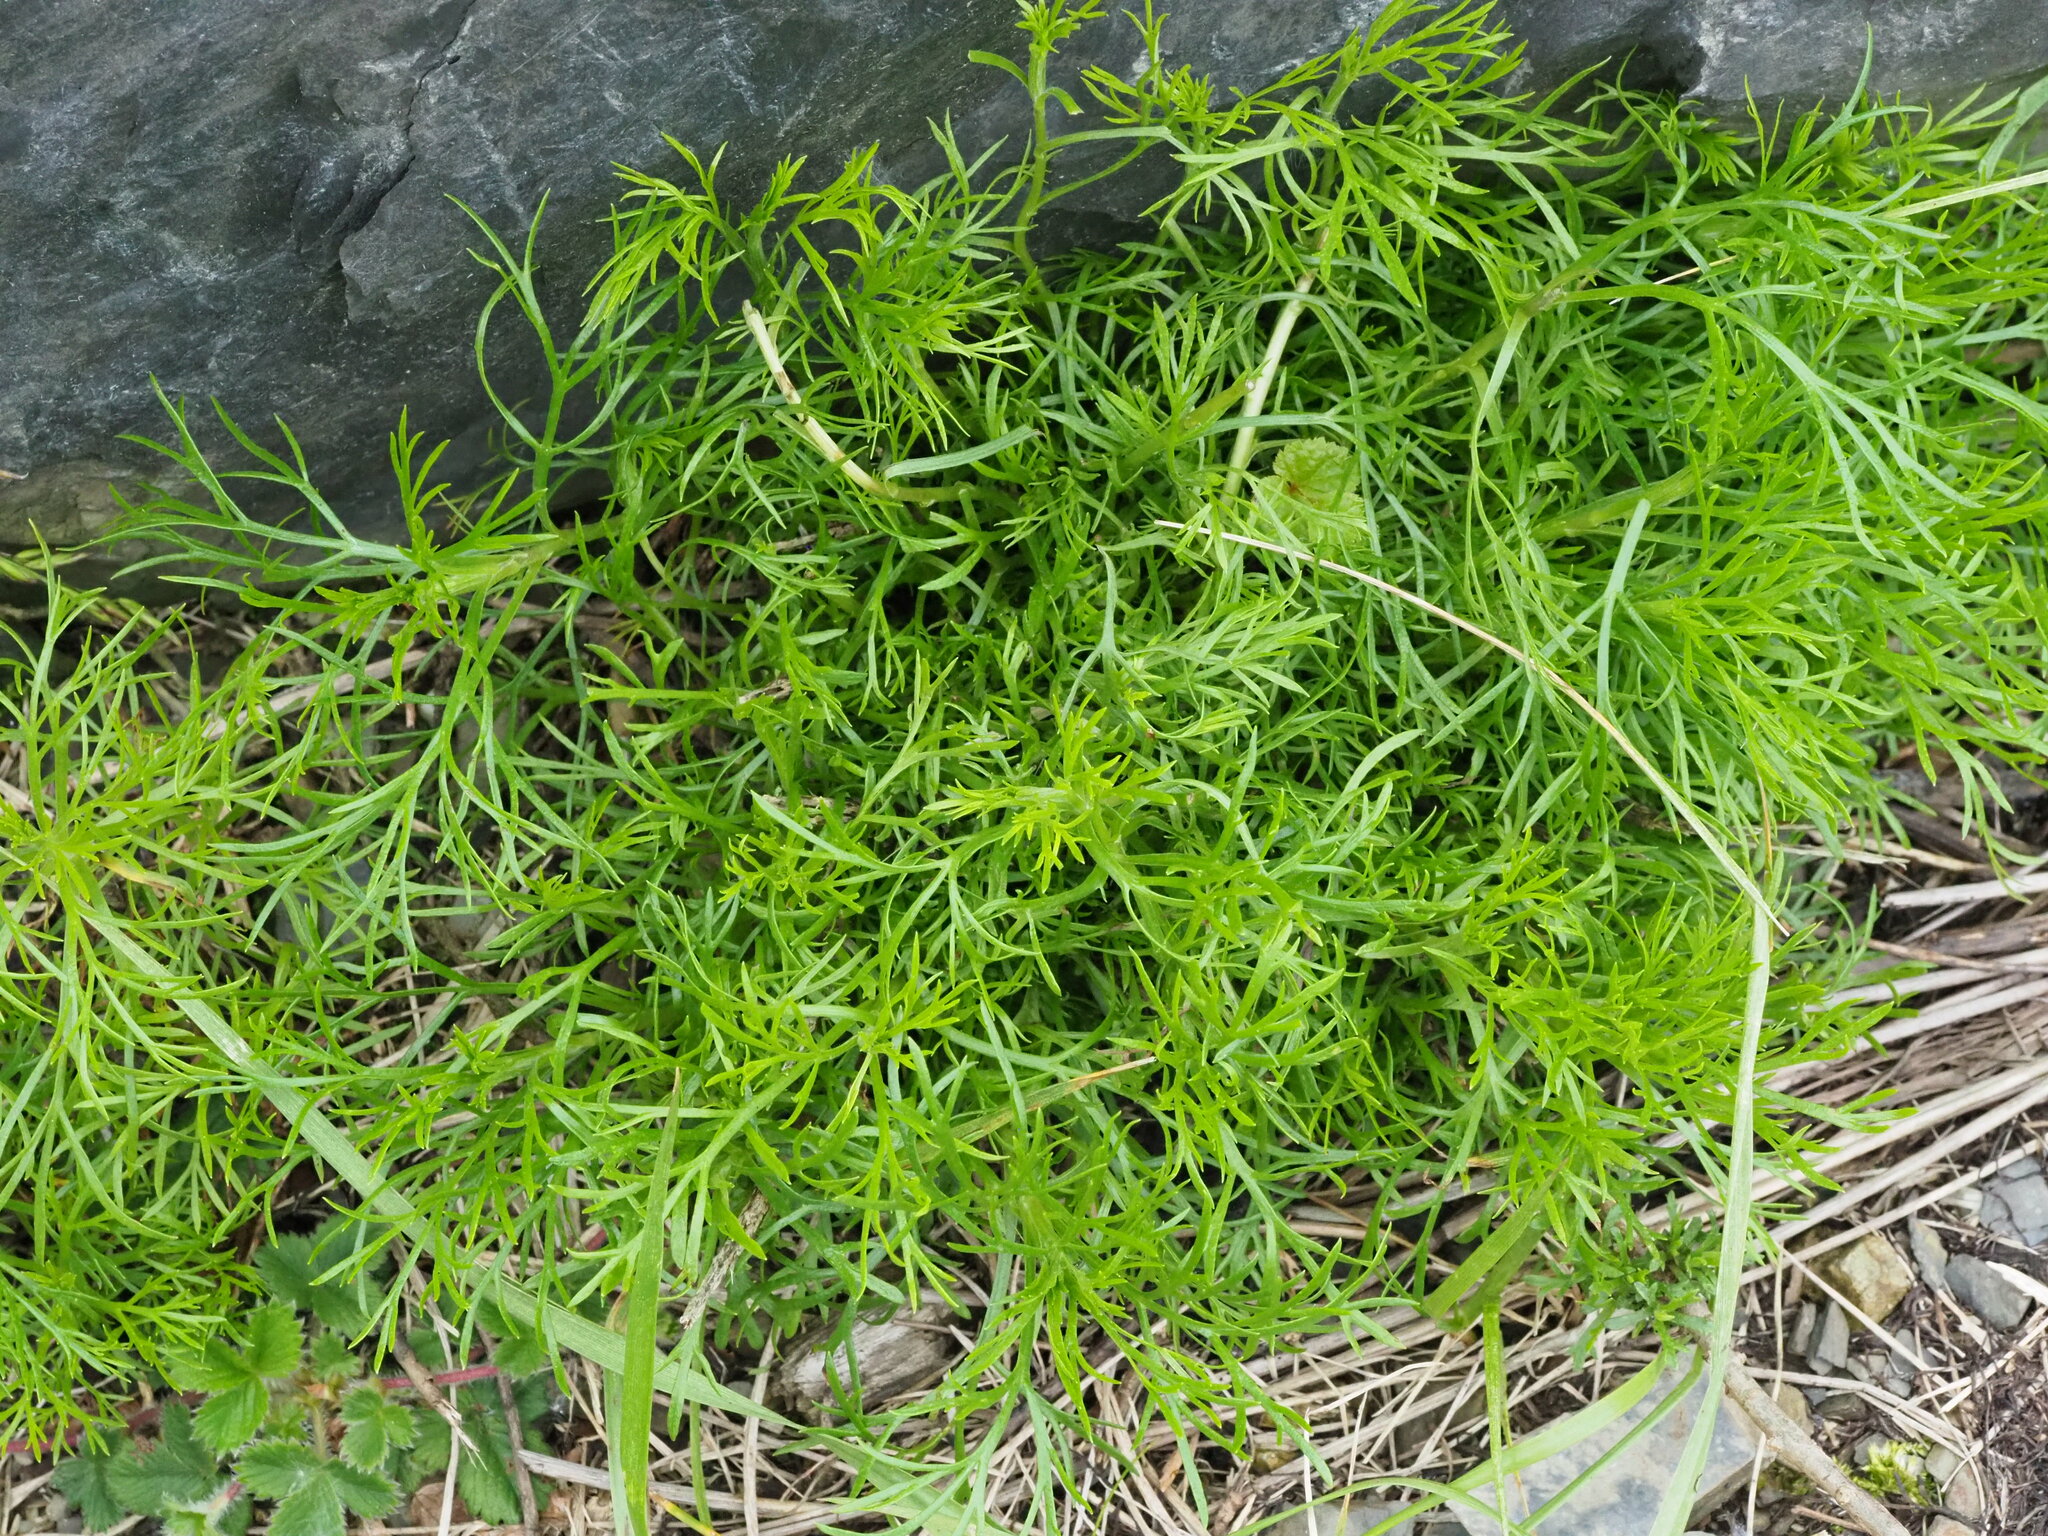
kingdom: Plantae
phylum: Tracheophyta
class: Magnoliopsida
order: Asterales
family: Asteraceae
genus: Artemisia
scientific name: Artemisia morrisonensis
